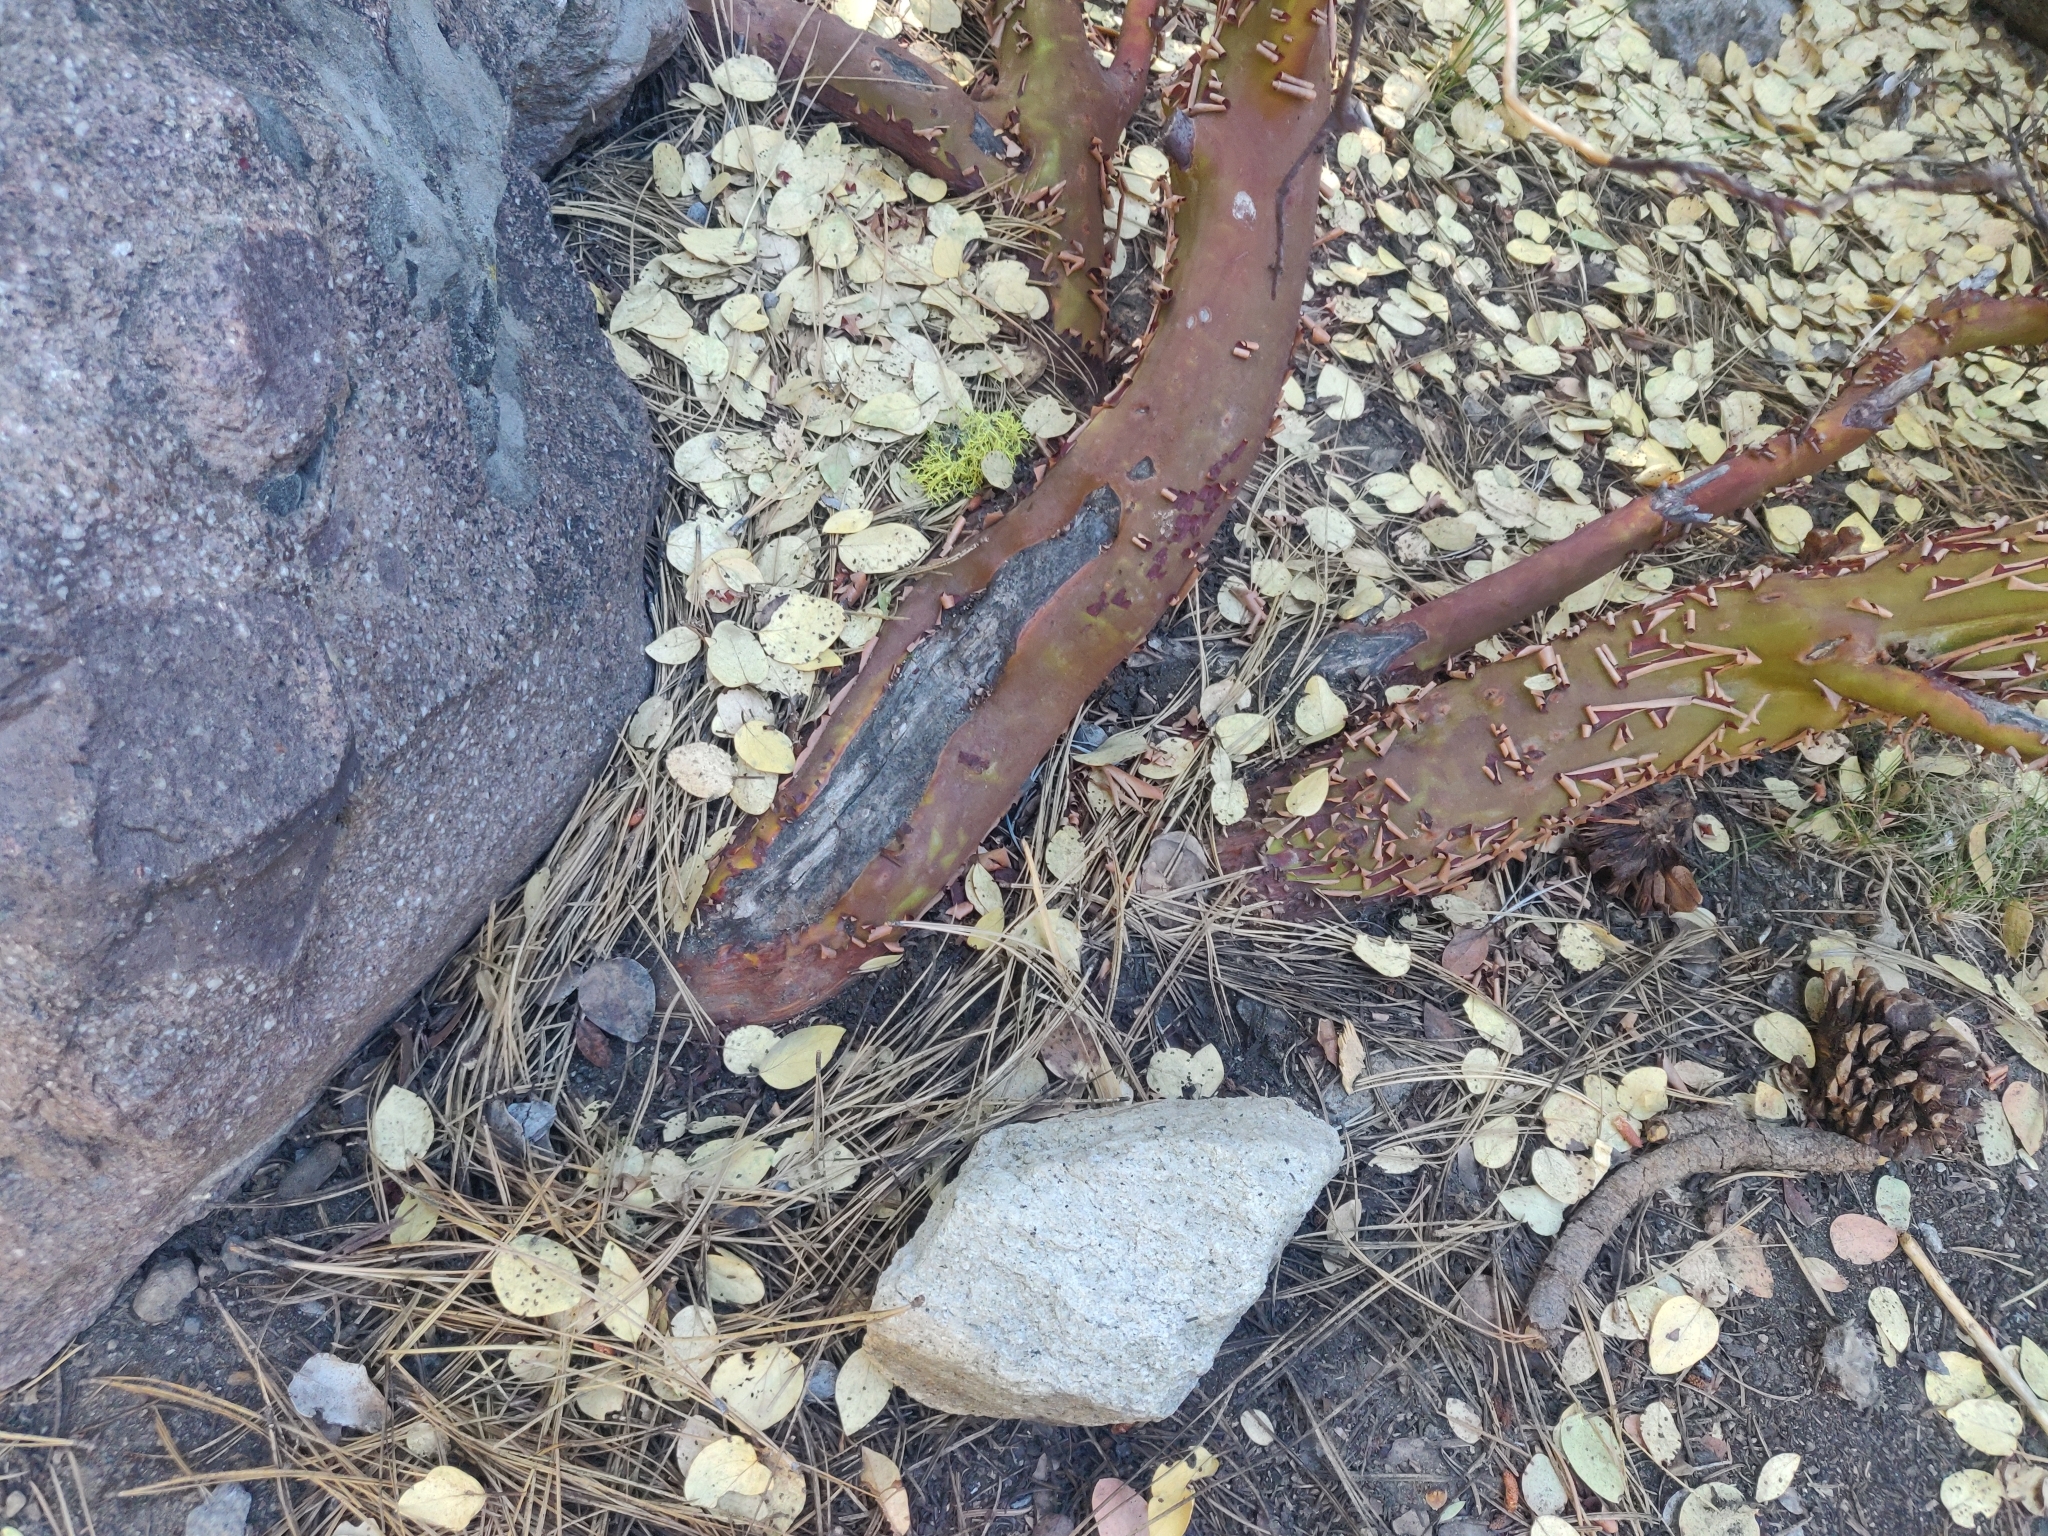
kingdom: Plantae
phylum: Tracheophyta
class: Magnoliopsida
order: Ericales
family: Ericaceae
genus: Arctostaphylos
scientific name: Arctostaphylos patula
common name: Green-leaf manzanita
